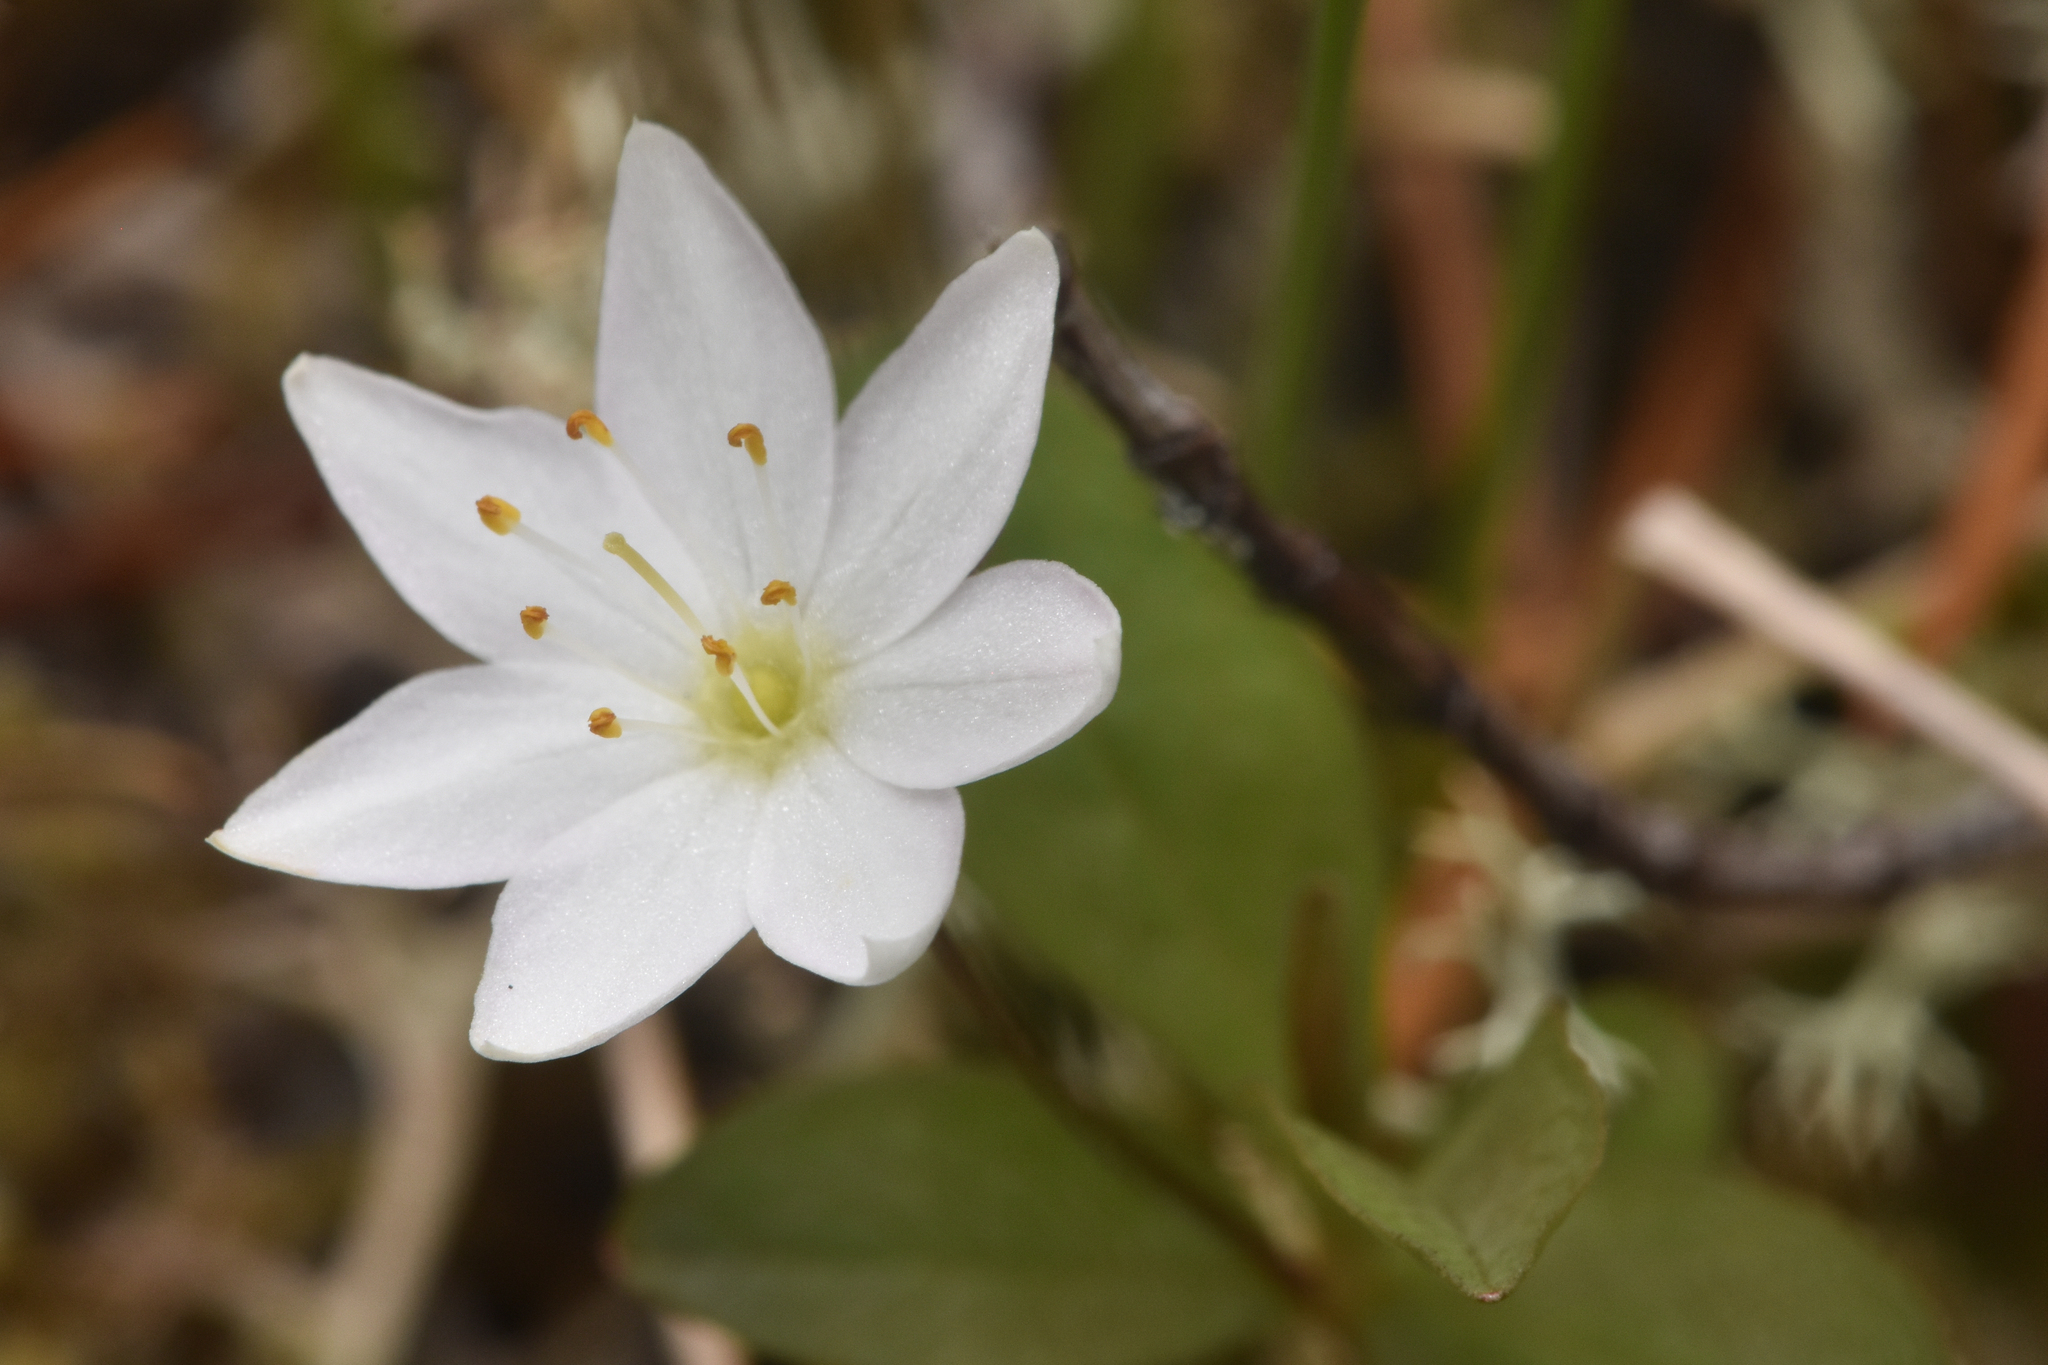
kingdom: Plantae
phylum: Tracheophyta
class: Magnoliopsida
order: Ericales
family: Primulaceae
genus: Lysimachia
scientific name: Lysimachia europaea
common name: Arctic starflower
